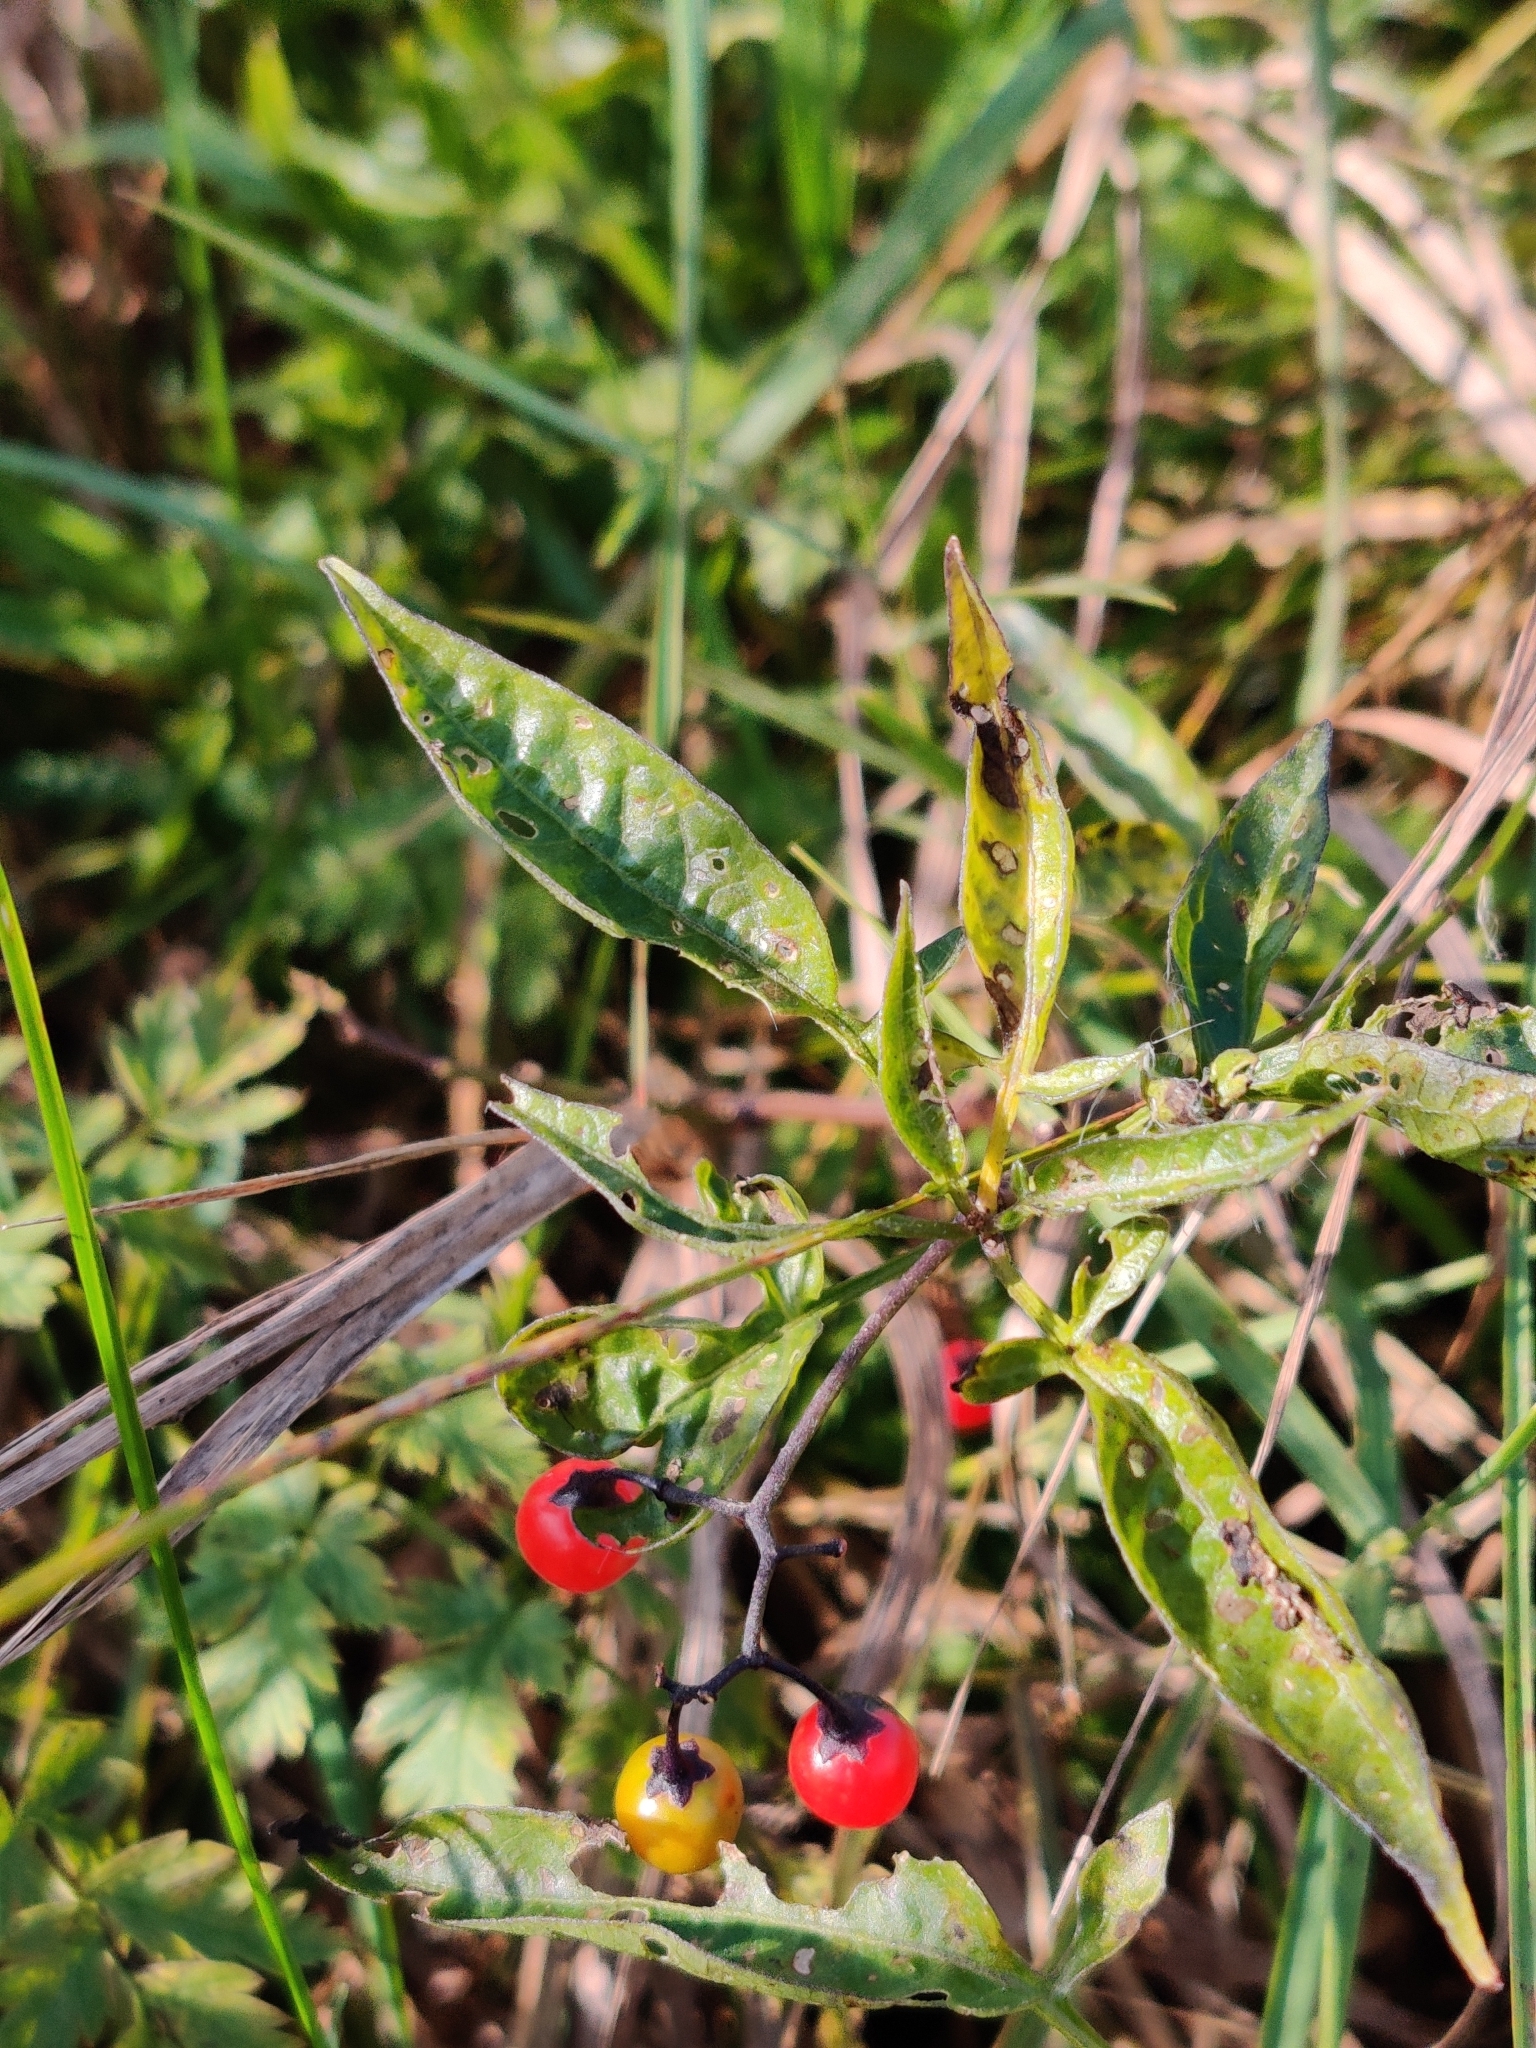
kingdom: Plantae
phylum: Tracheophyta
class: Magnoliopsida
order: Solanales
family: Solanaceae
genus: Solanum
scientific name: Solanum dulcamara
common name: Climbing nightshade
